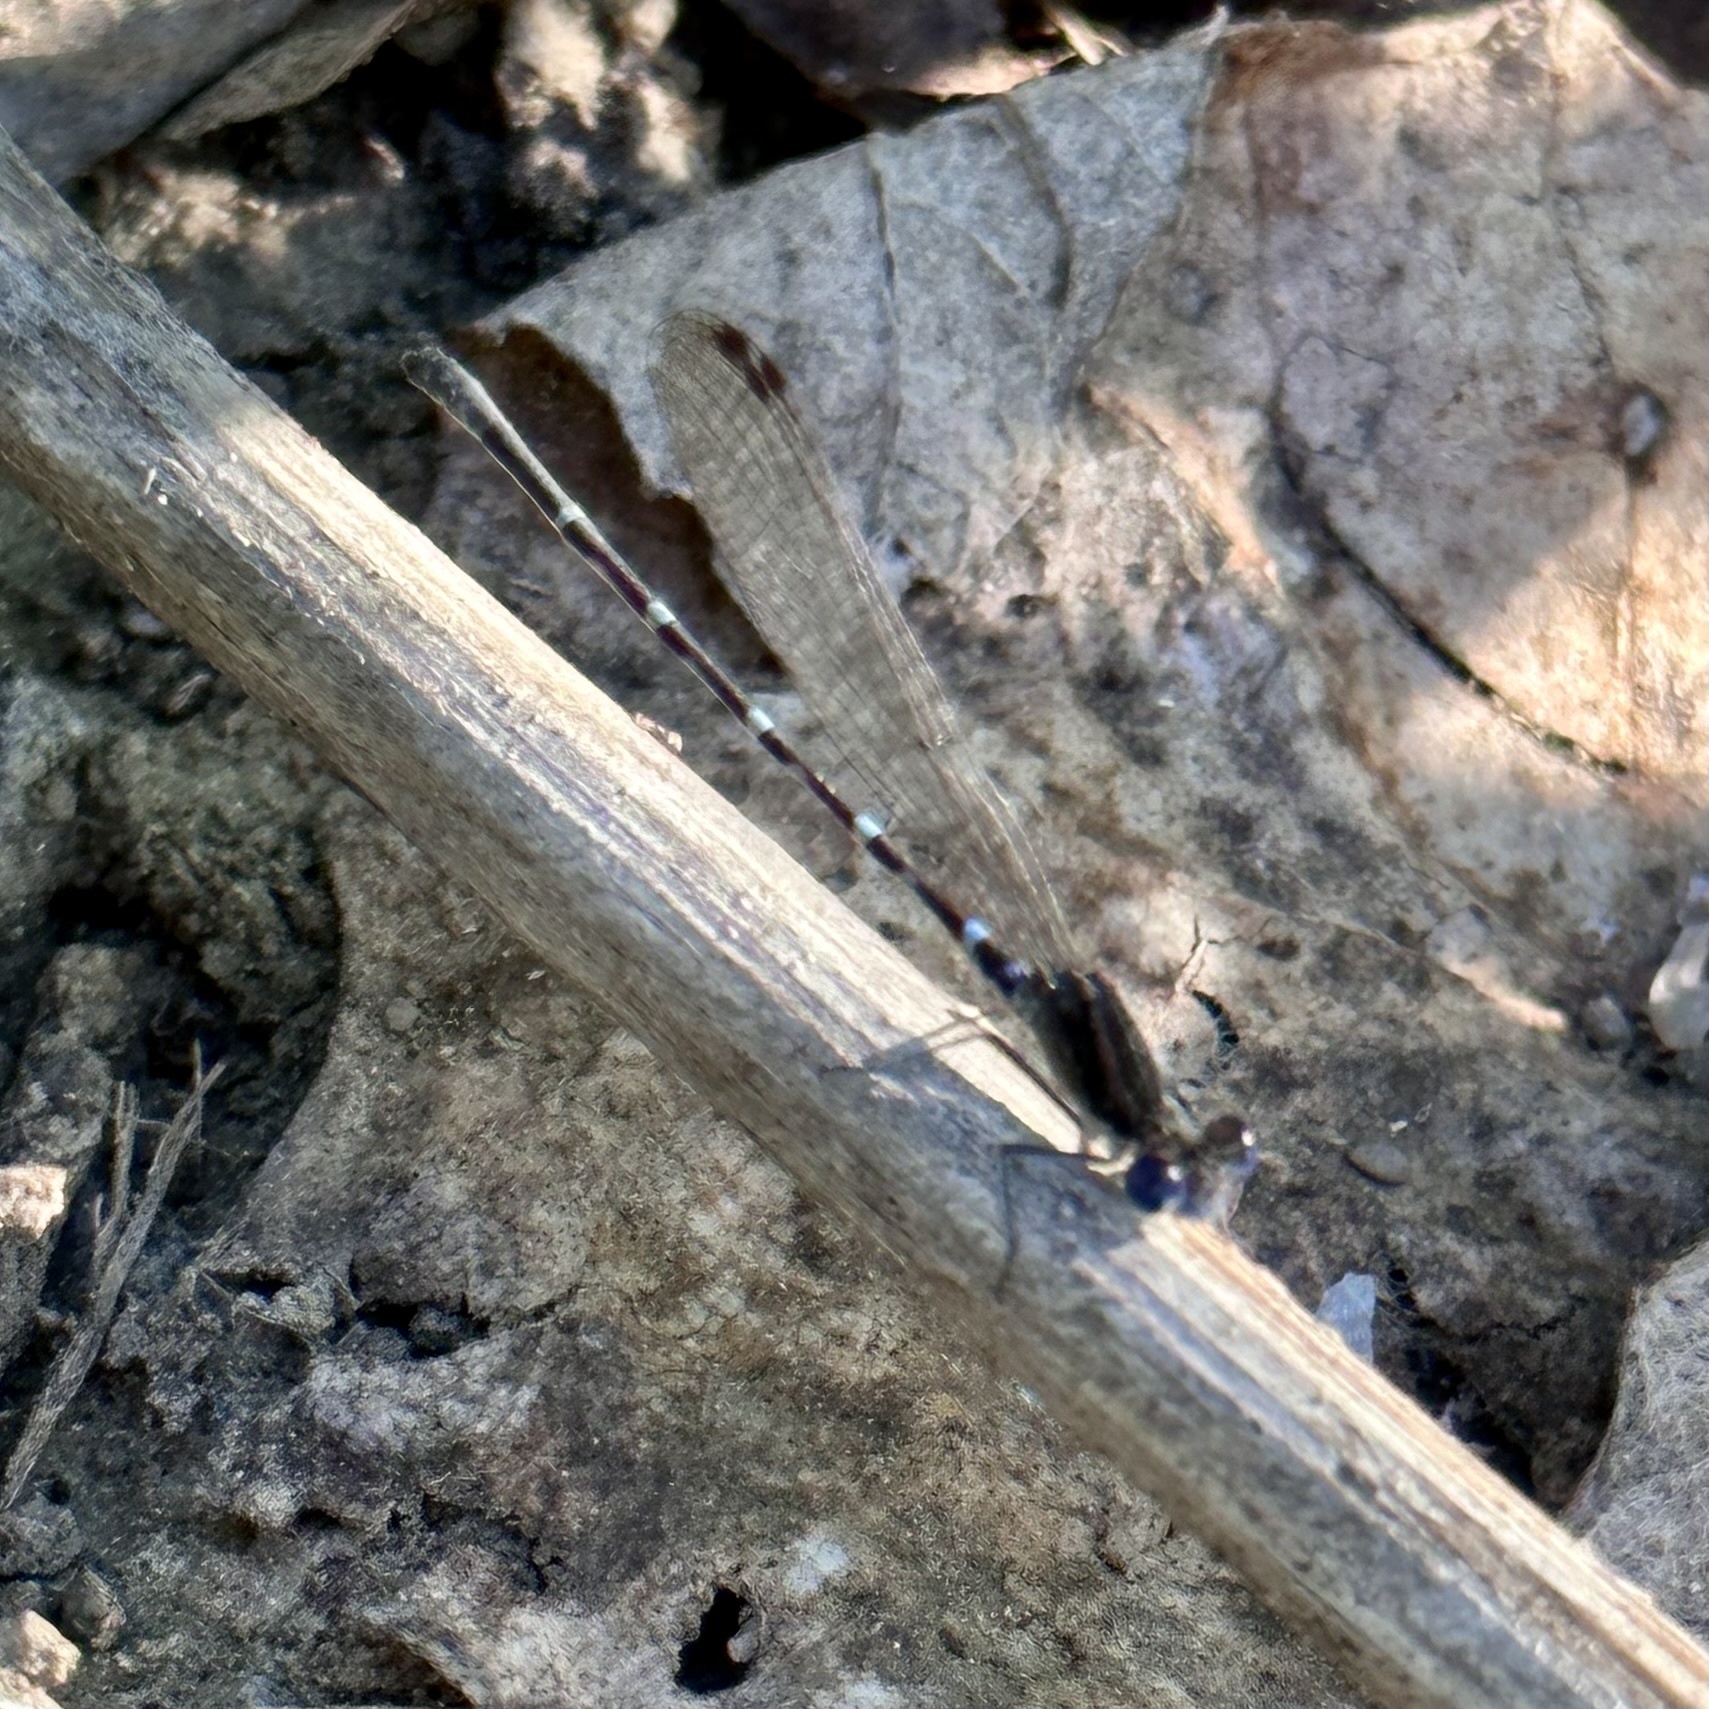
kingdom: Animalia
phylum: Arthropoda
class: Insecta
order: Odonata
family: Coenagrionidae
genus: Argia
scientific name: Argia sedula
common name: Blue-ringed dancer
